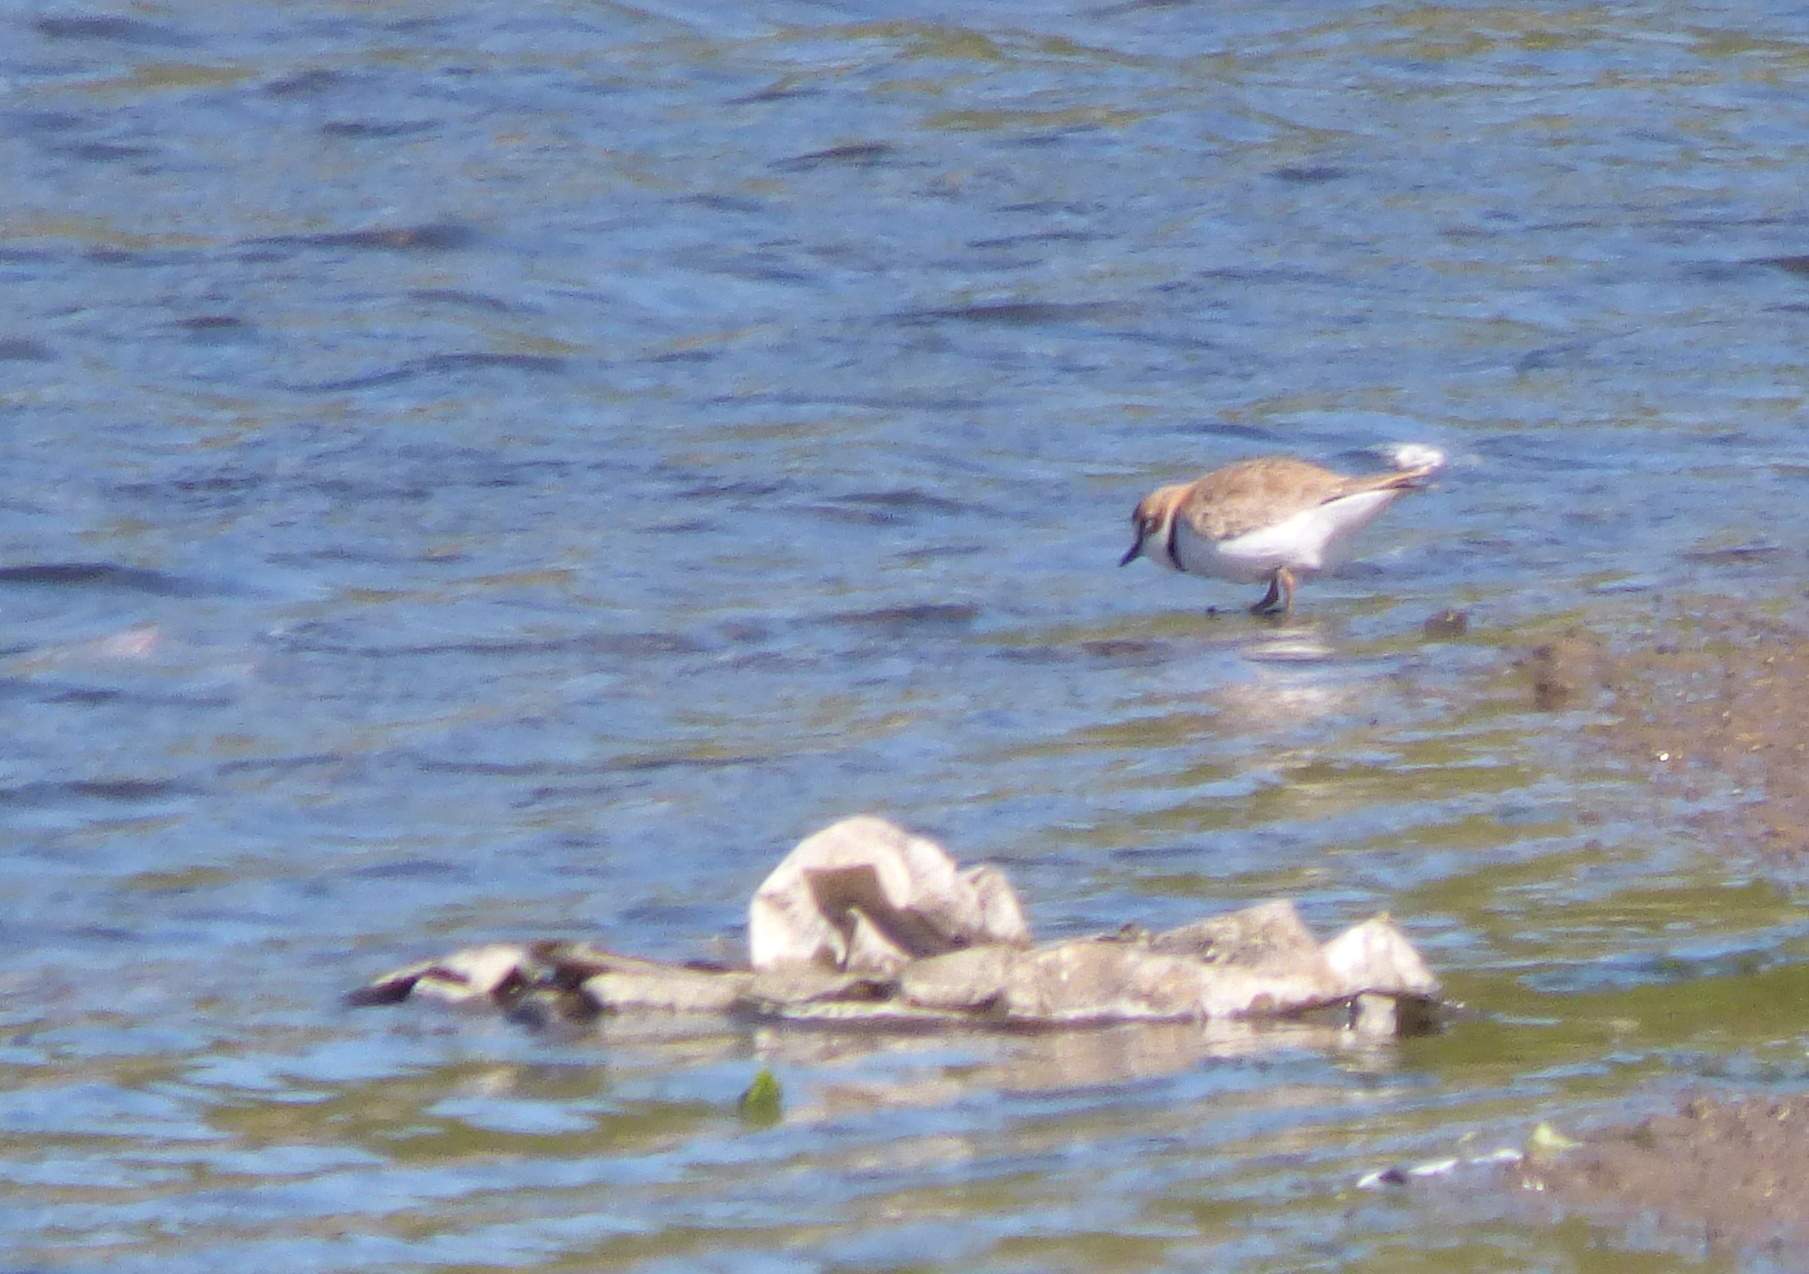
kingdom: Animalia
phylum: Chordata
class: Aves
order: Charadriiformes
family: Charadriidae
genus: Anarhynchus
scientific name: Anarhynchus
